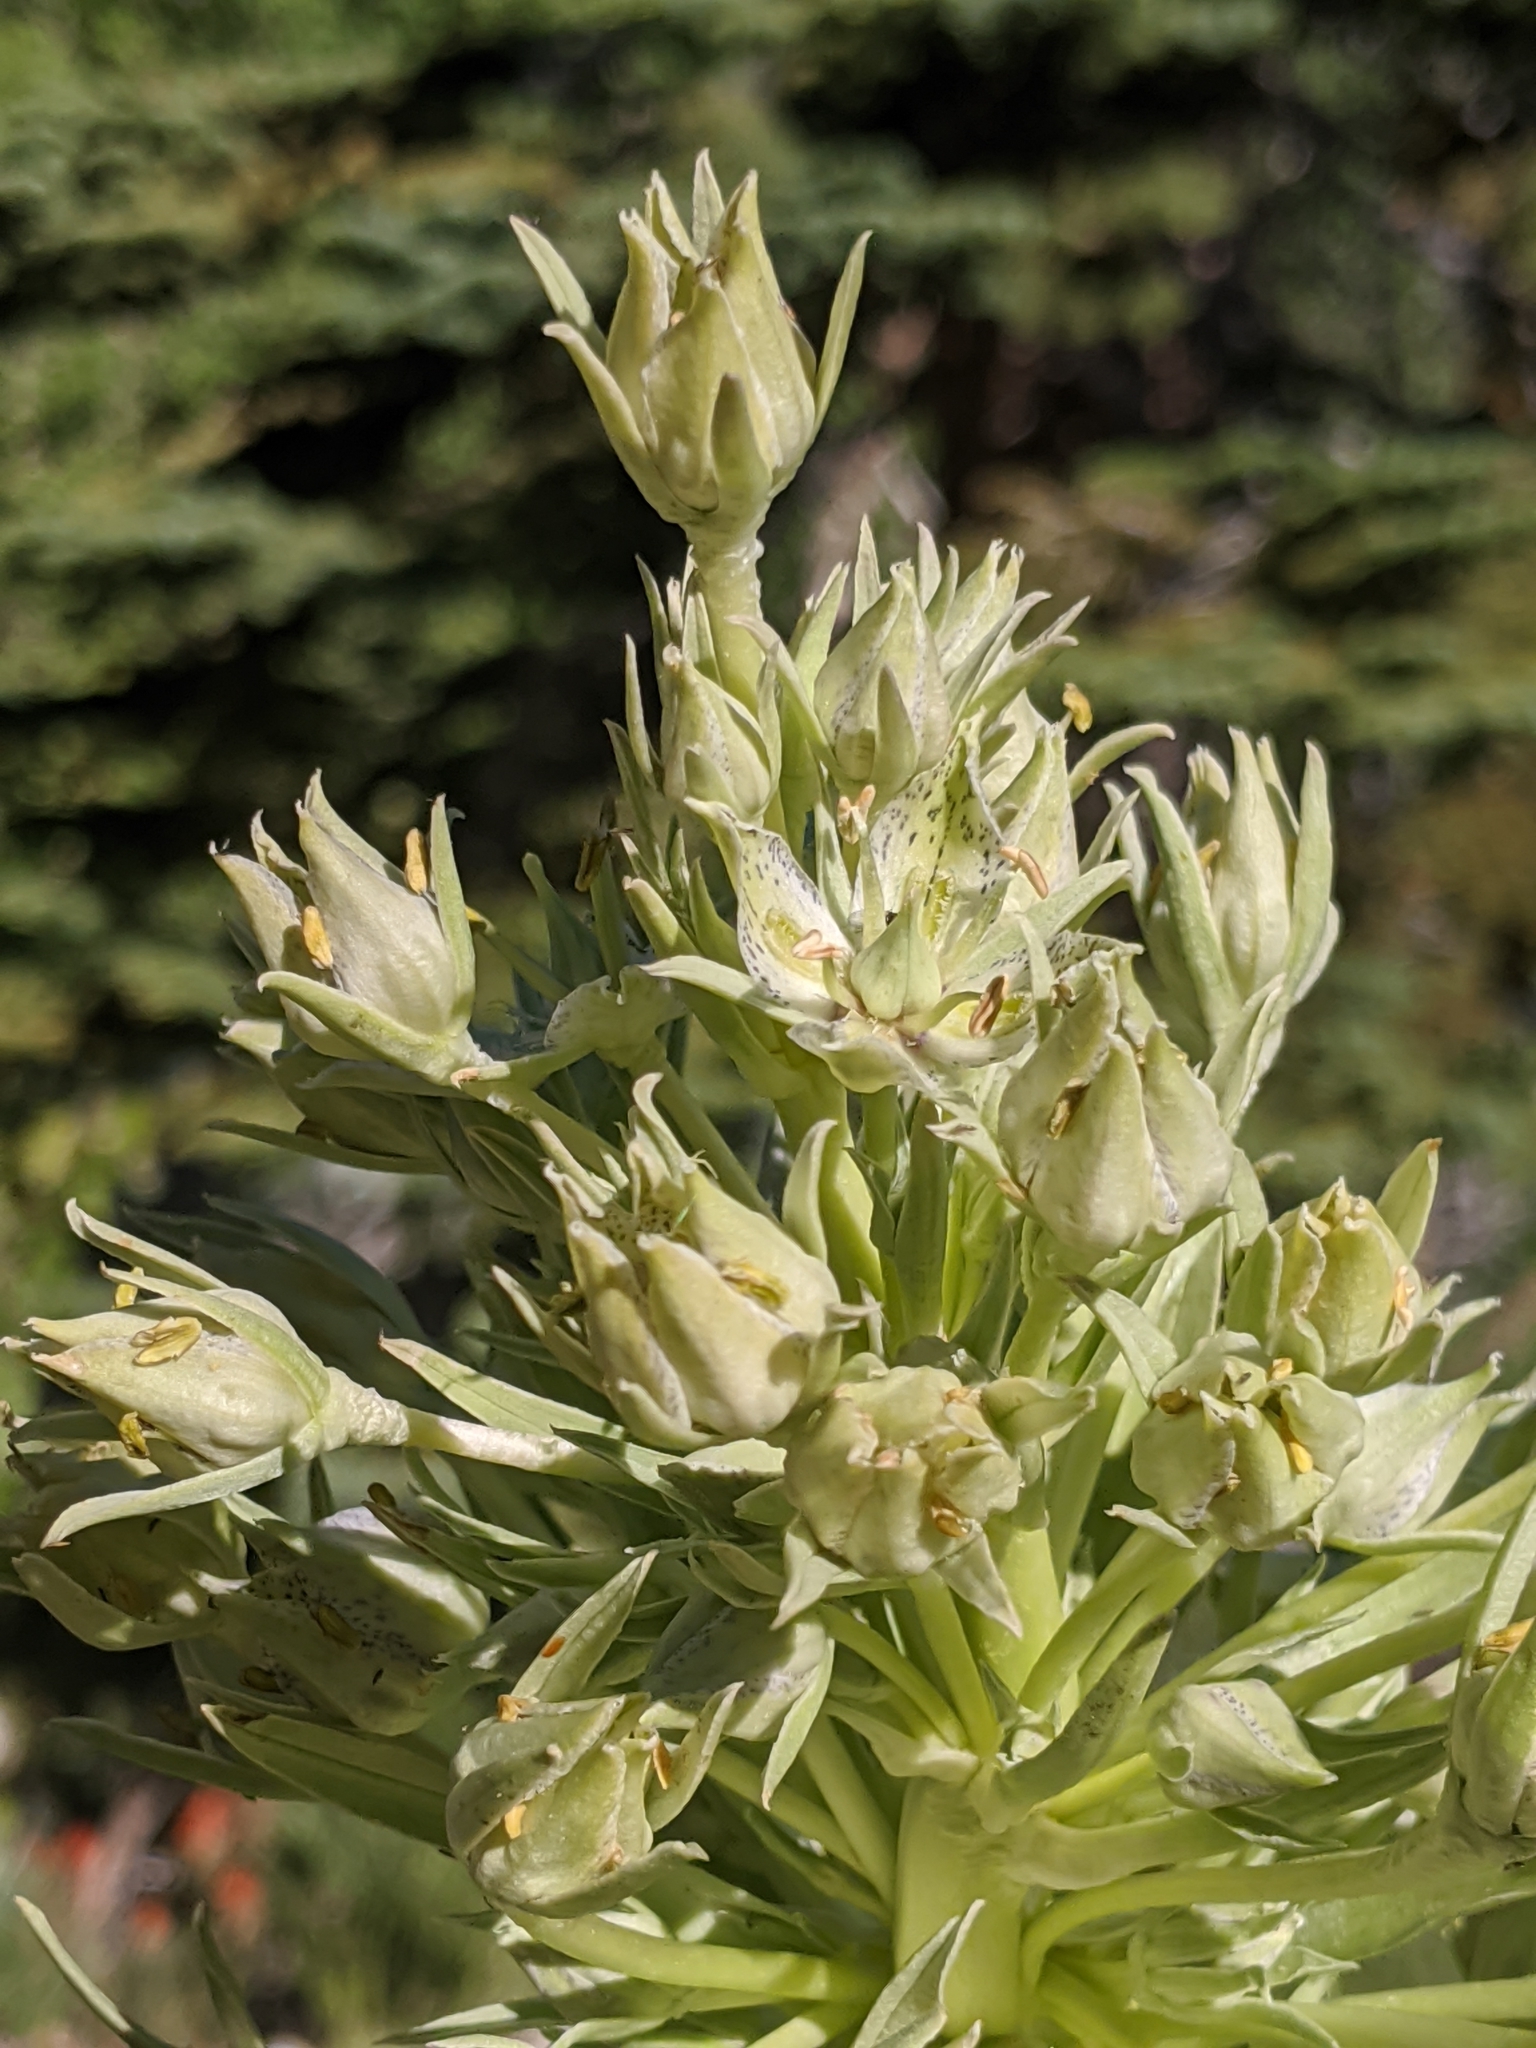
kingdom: Plantae
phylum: Tracheophyta
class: Magnoliopsida
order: Gentianales
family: Gentianaceae
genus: Frasera
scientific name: Frasera speciosa
